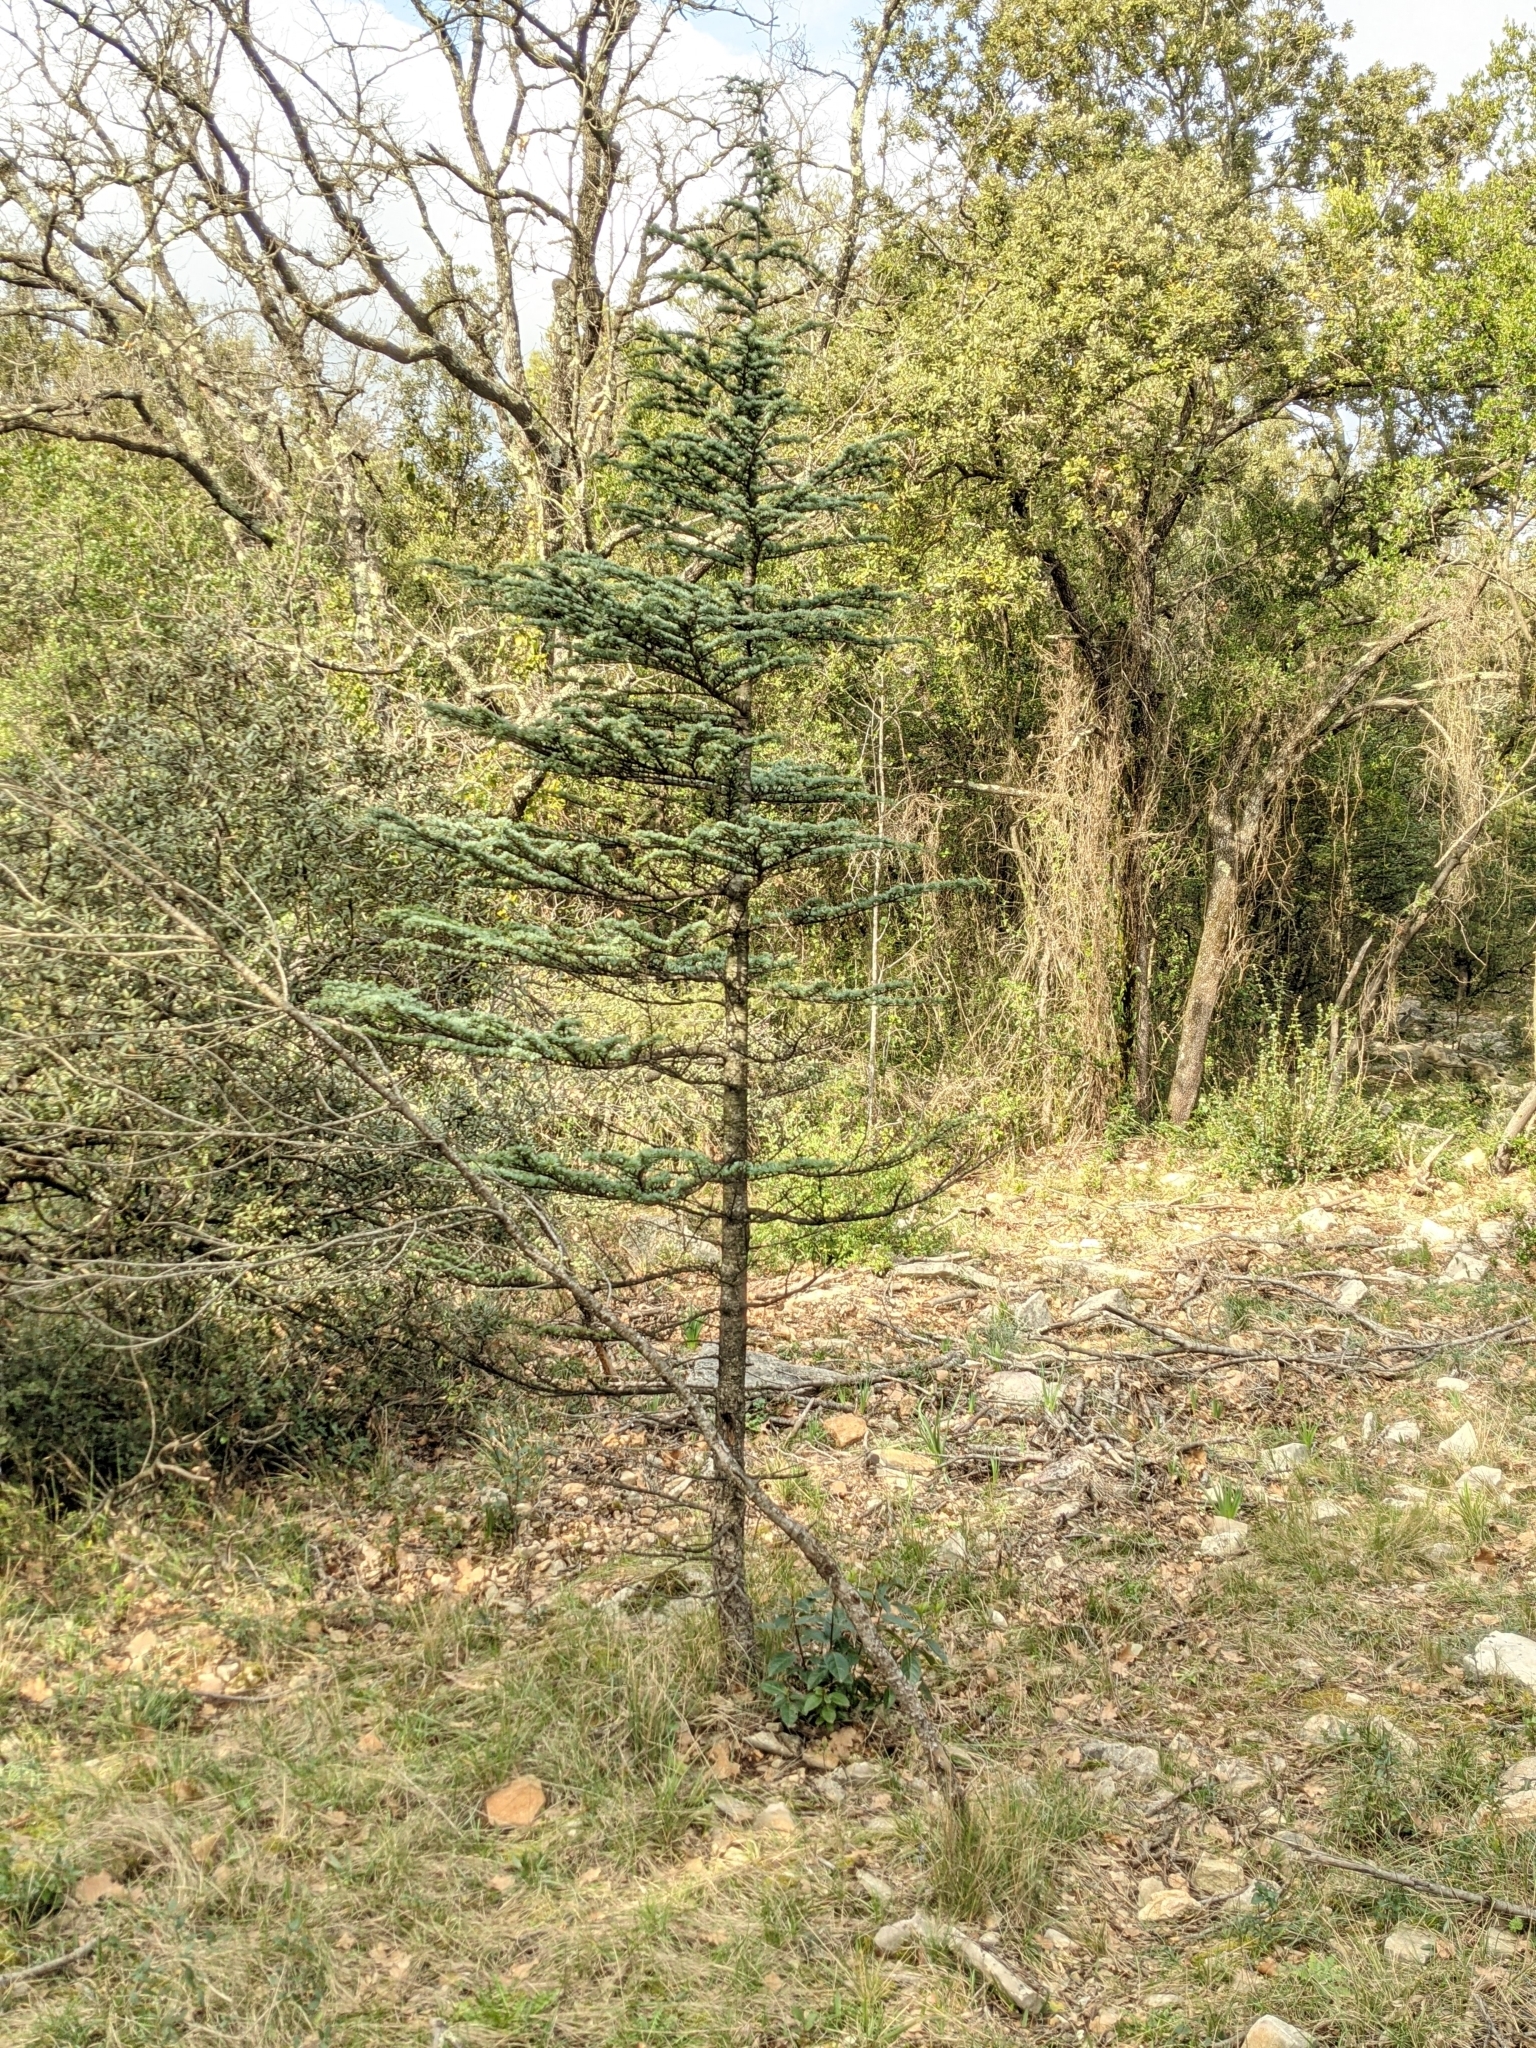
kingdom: Plantae
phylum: Tracheophyta
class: Pinopsida
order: Pinales
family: Pinaceae
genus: Cedrus
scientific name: Cedrus atlantica
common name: Atlas cedar
